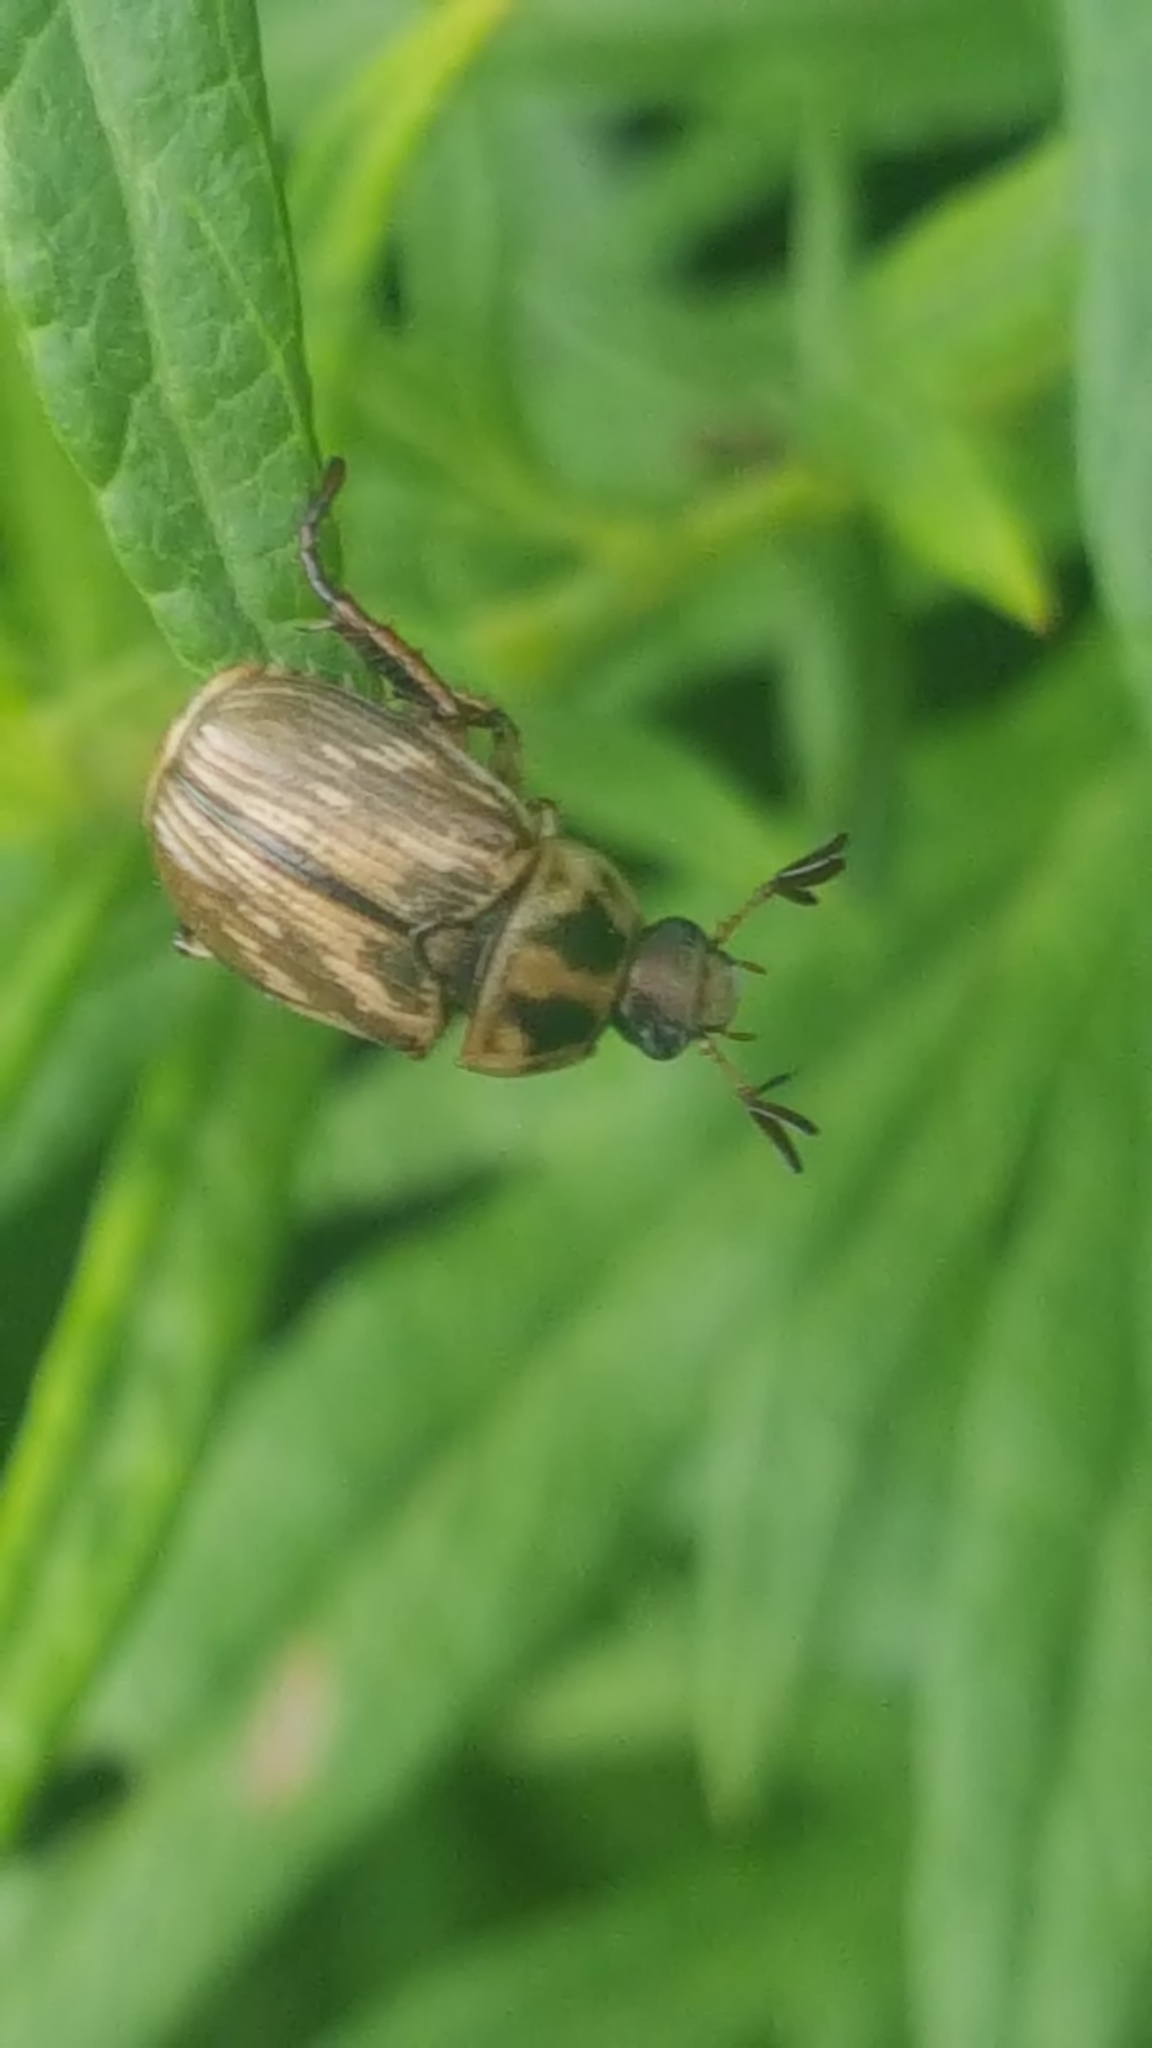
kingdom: Animalia
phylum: Arthropoda
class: Insecta
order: Coleoptera
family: Scarabaeidae
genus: Exomala
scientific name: Exomala orientalis
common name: Oriental beetle
